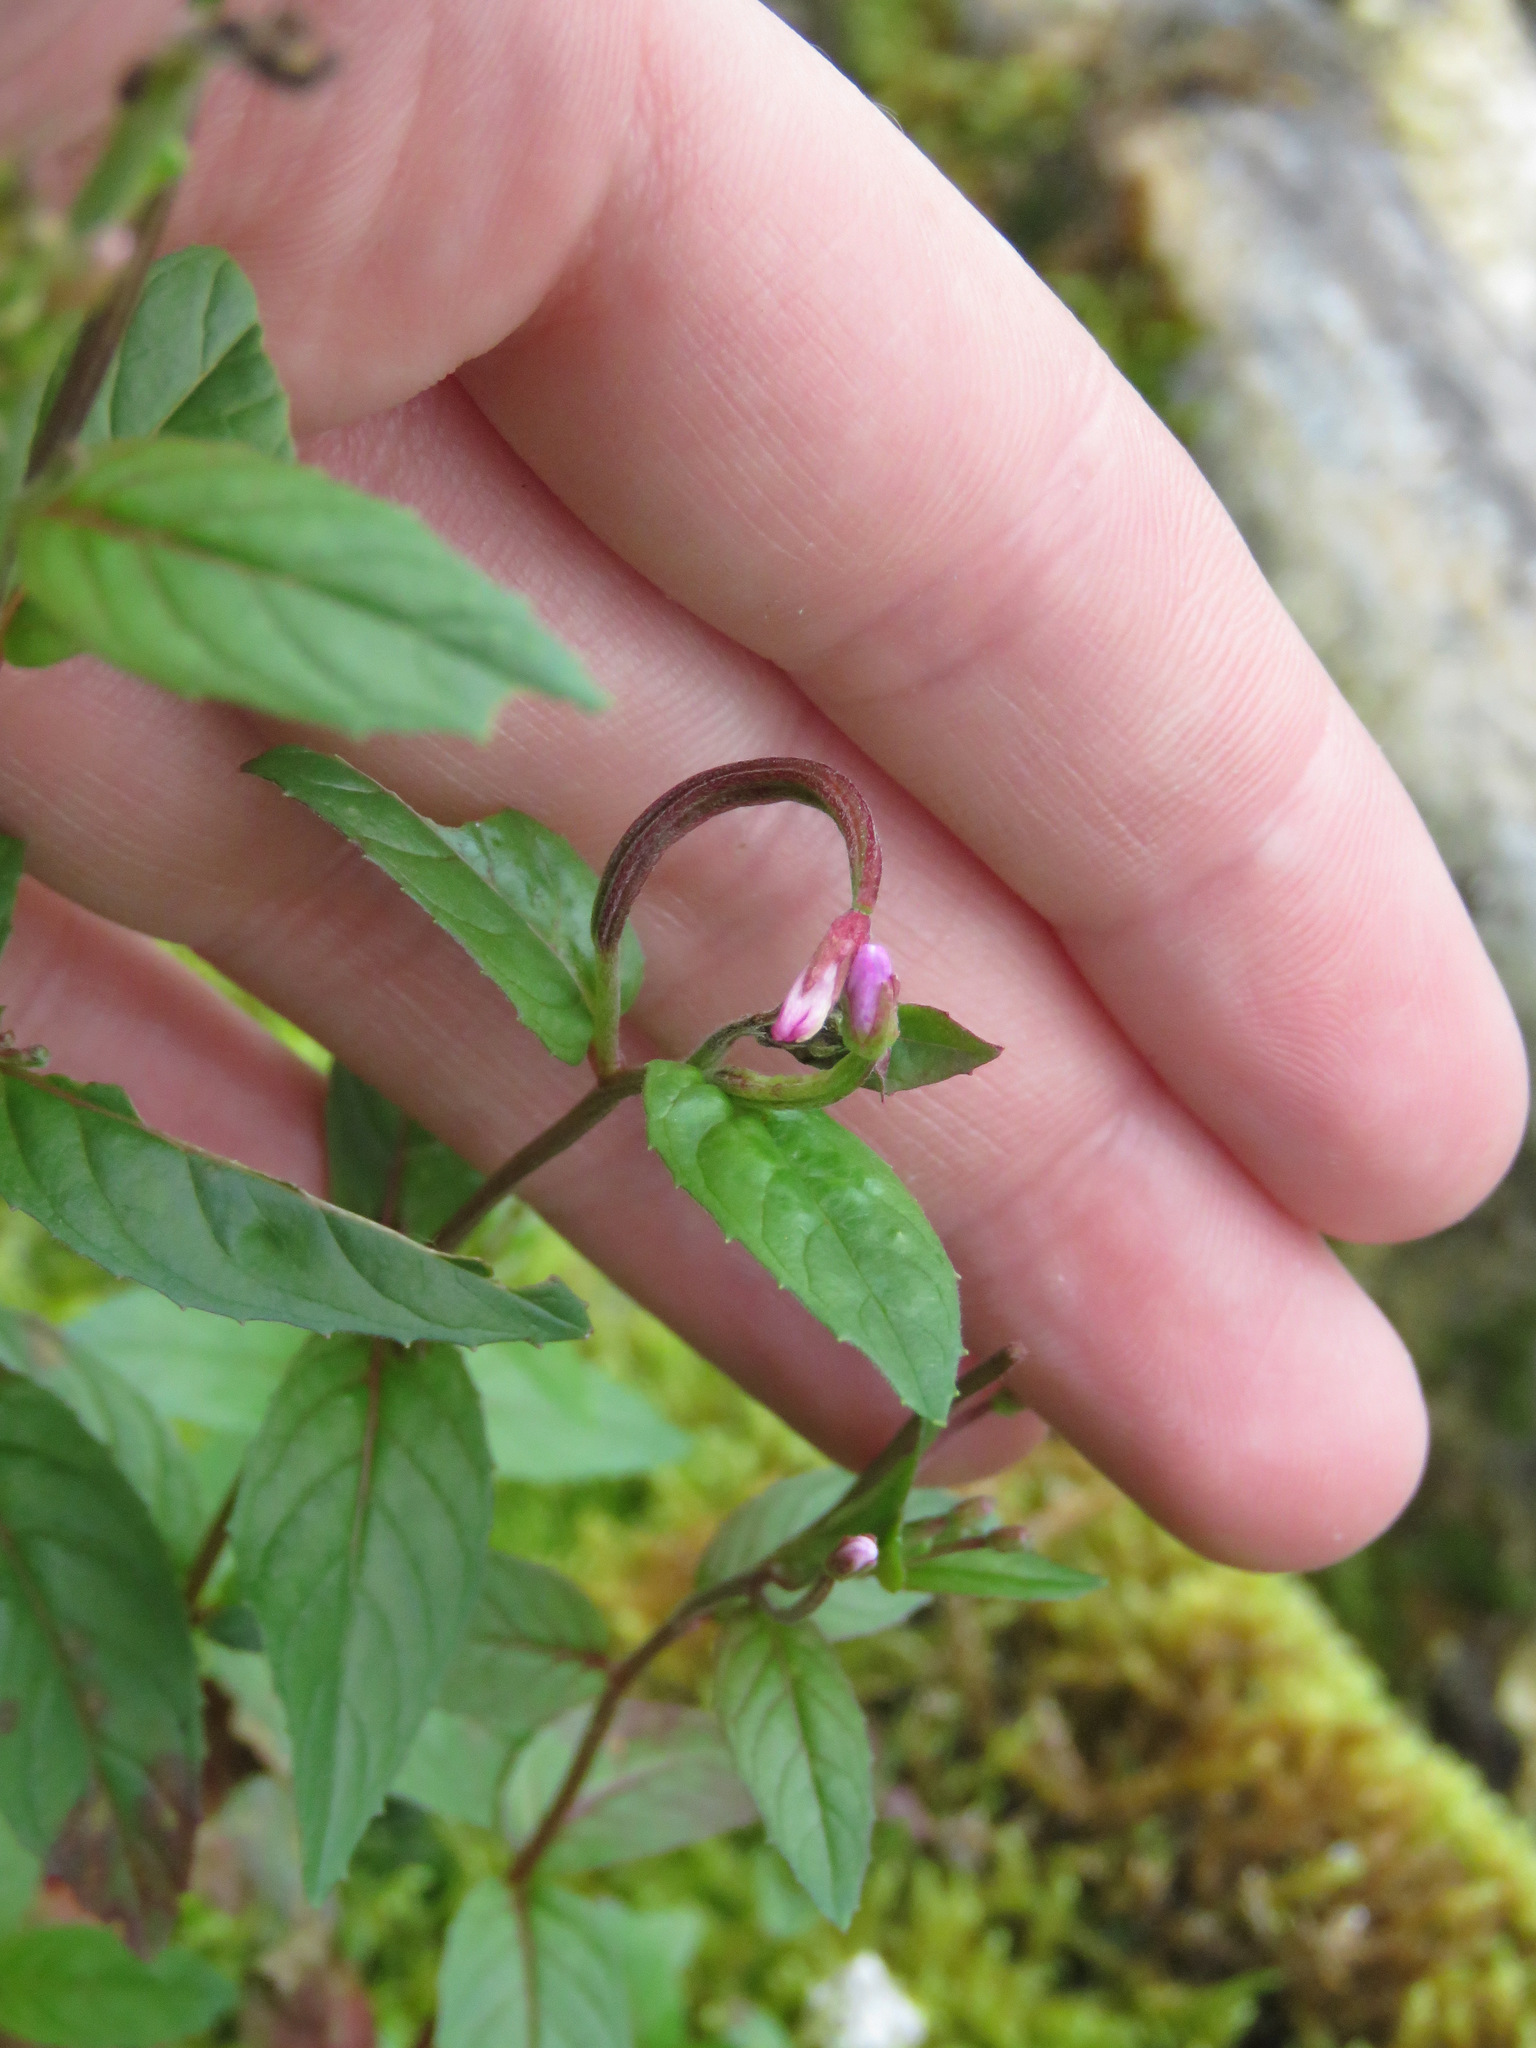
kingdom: Plantae
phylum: Tracheophyta
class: Magnoliopsida
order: Myrtales
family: Onagraceae
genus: Epilobium
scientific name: Epilobium ciliatum
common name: American willowherb
